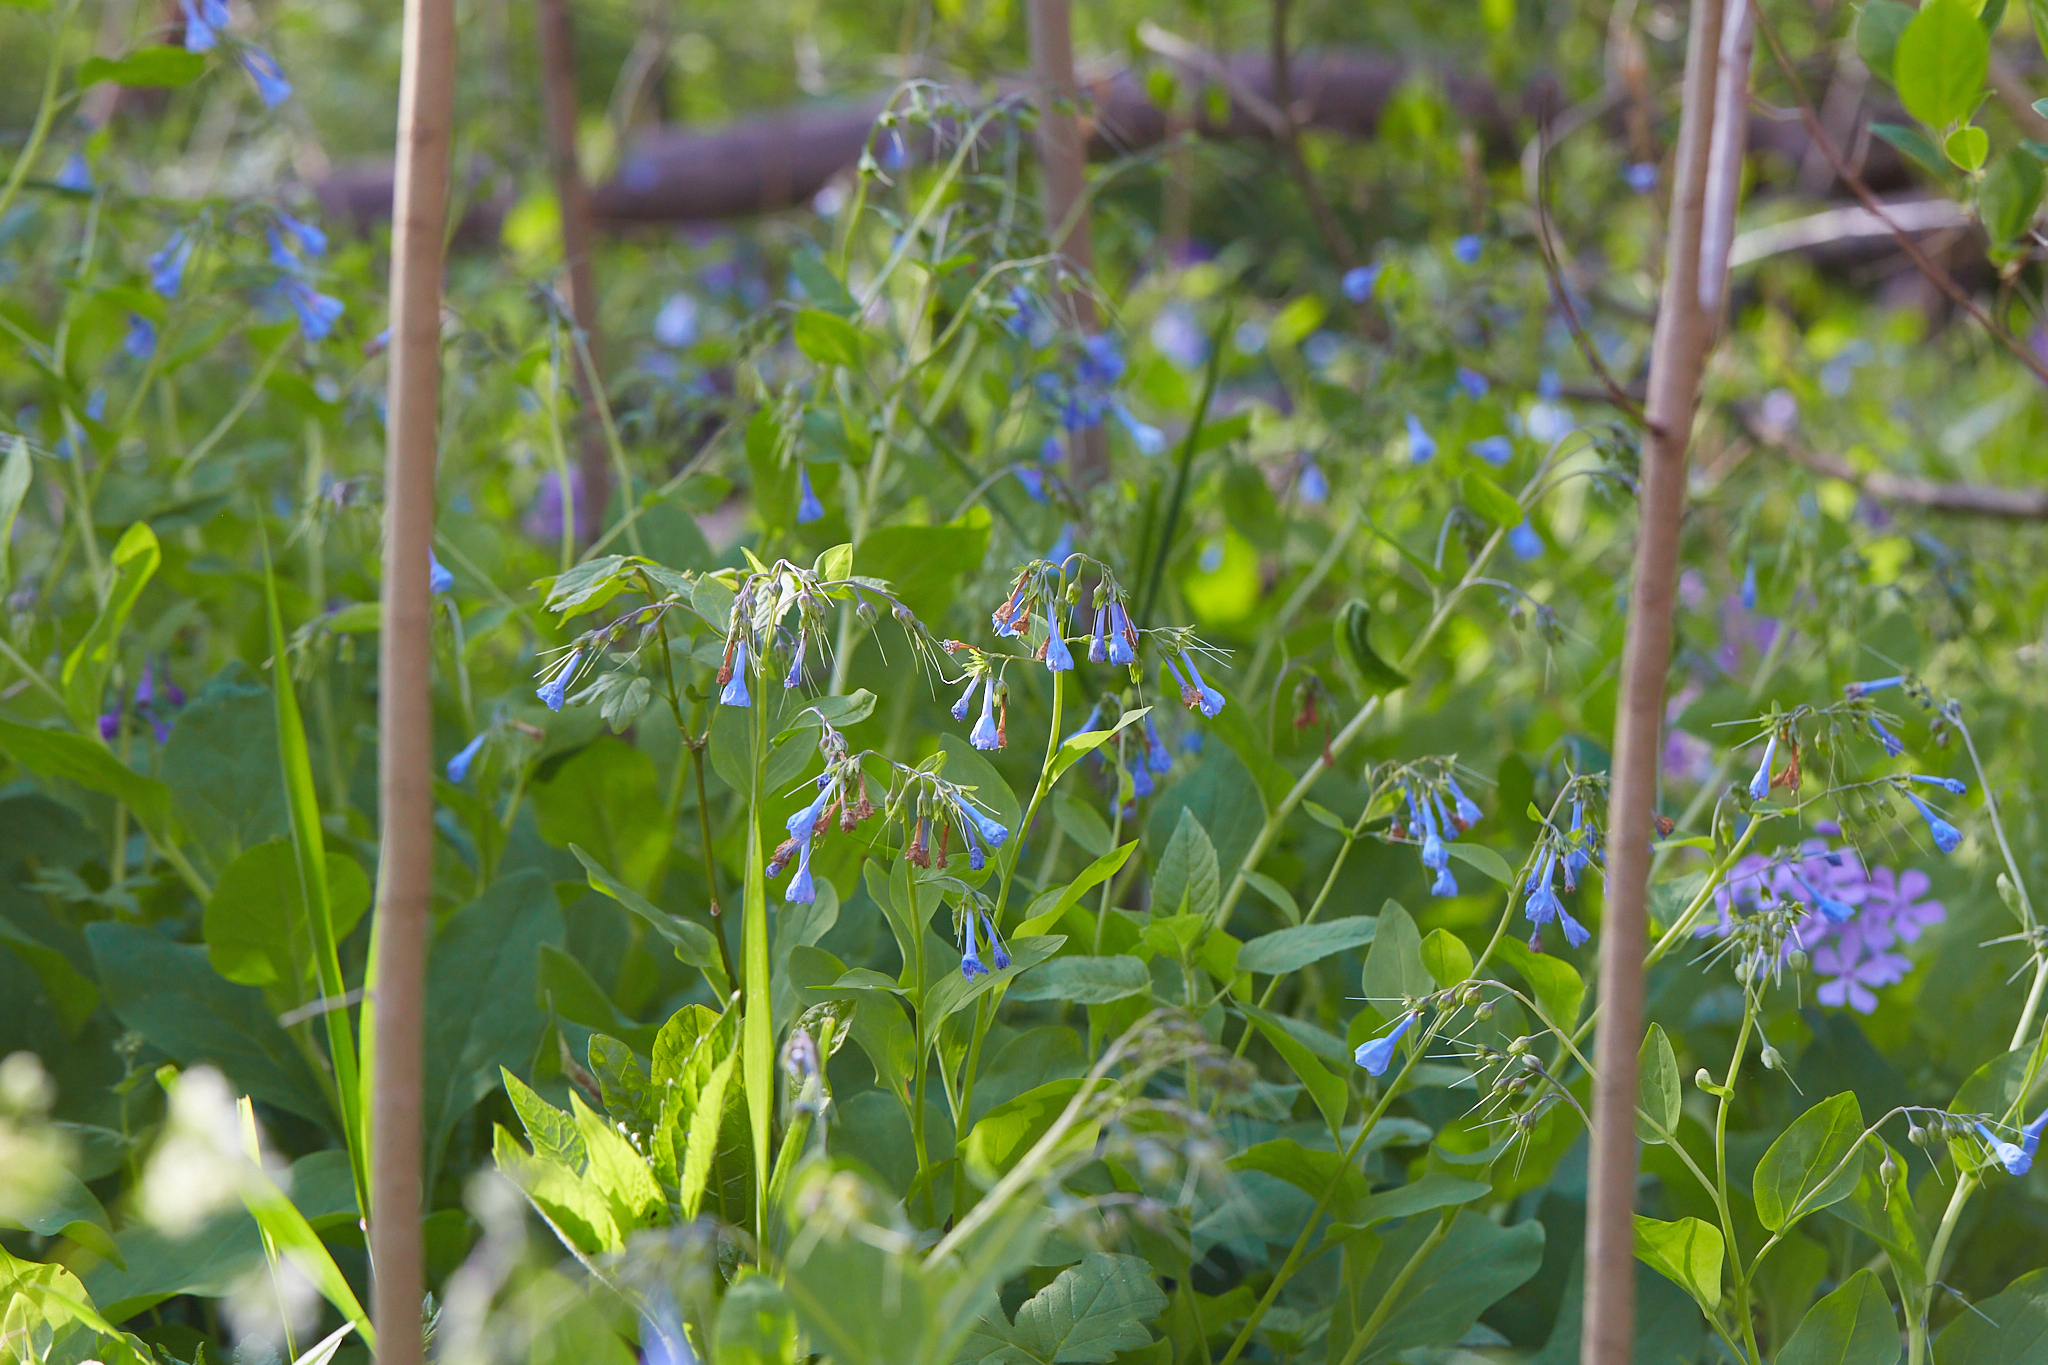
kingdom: Plantae
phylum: Tracheophyta
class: Magnoliopsida
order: Boraginales
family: Boraginaceae
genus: Mertensia
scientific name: Mertensia virginica
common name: Virginia bluebells
